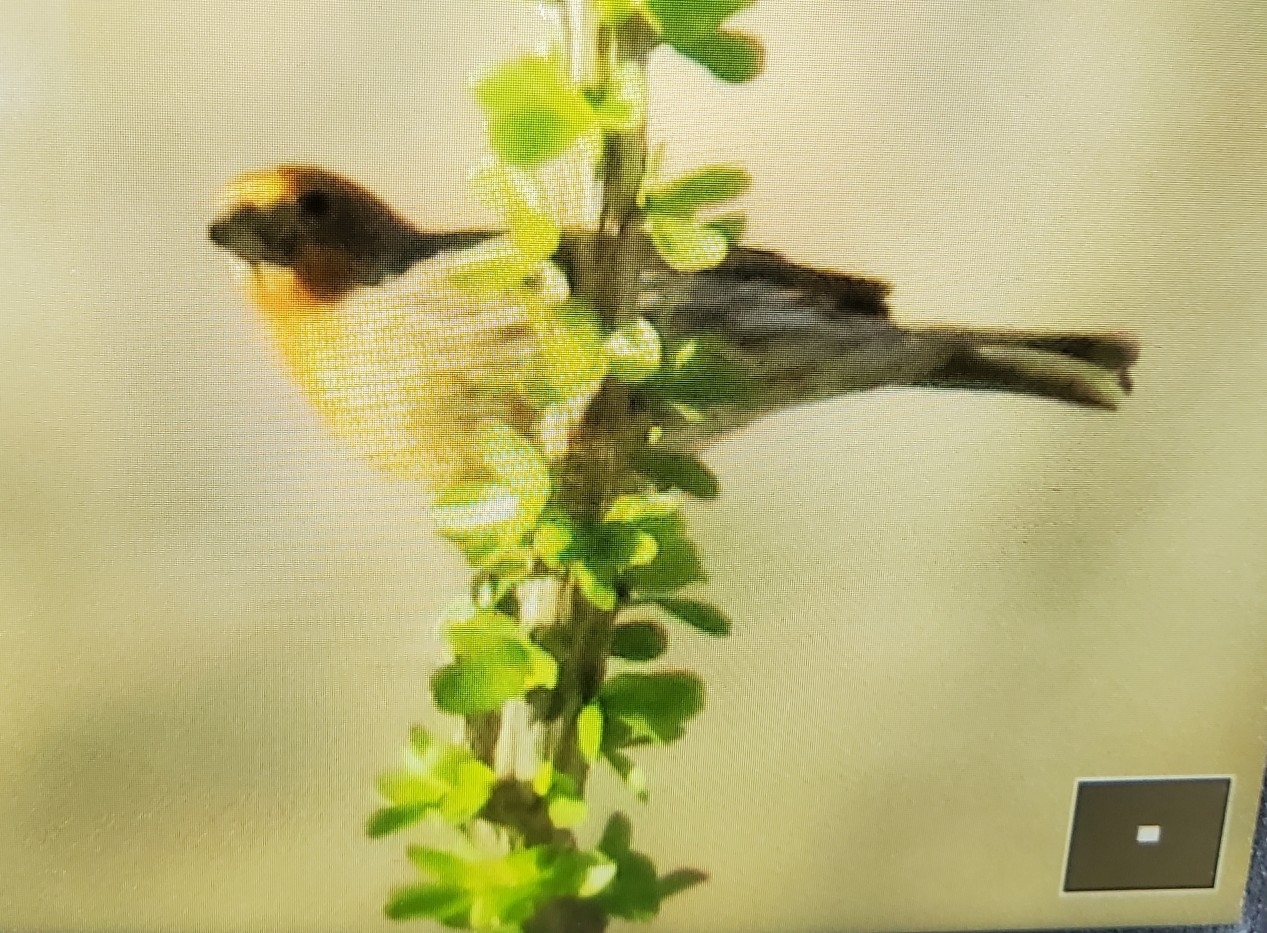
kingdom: Animalia
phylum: Chordata
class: Aves
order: Passeriformes
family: Fringillidae
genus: Haemorhous
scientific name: Haemorhous mexicanus
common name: House finch
